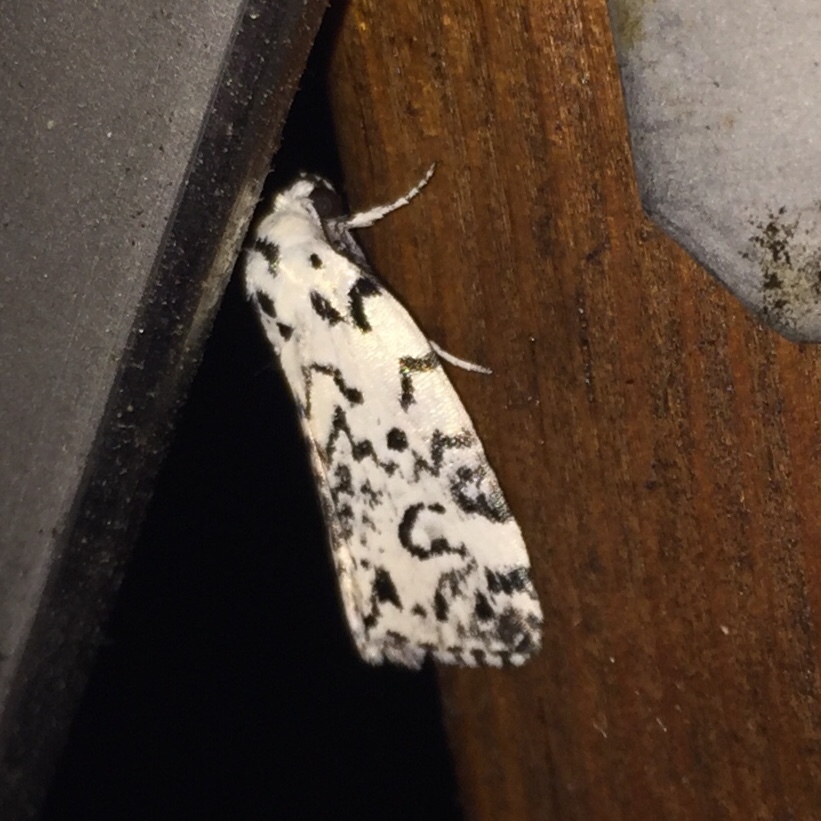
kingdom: Animalia
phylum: Arthropoda
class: Insecta
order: Lepidoptera
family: Noctuidae
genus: Polygrammate
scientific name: Polygrammate hebraeicum
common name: Hebrew moth
